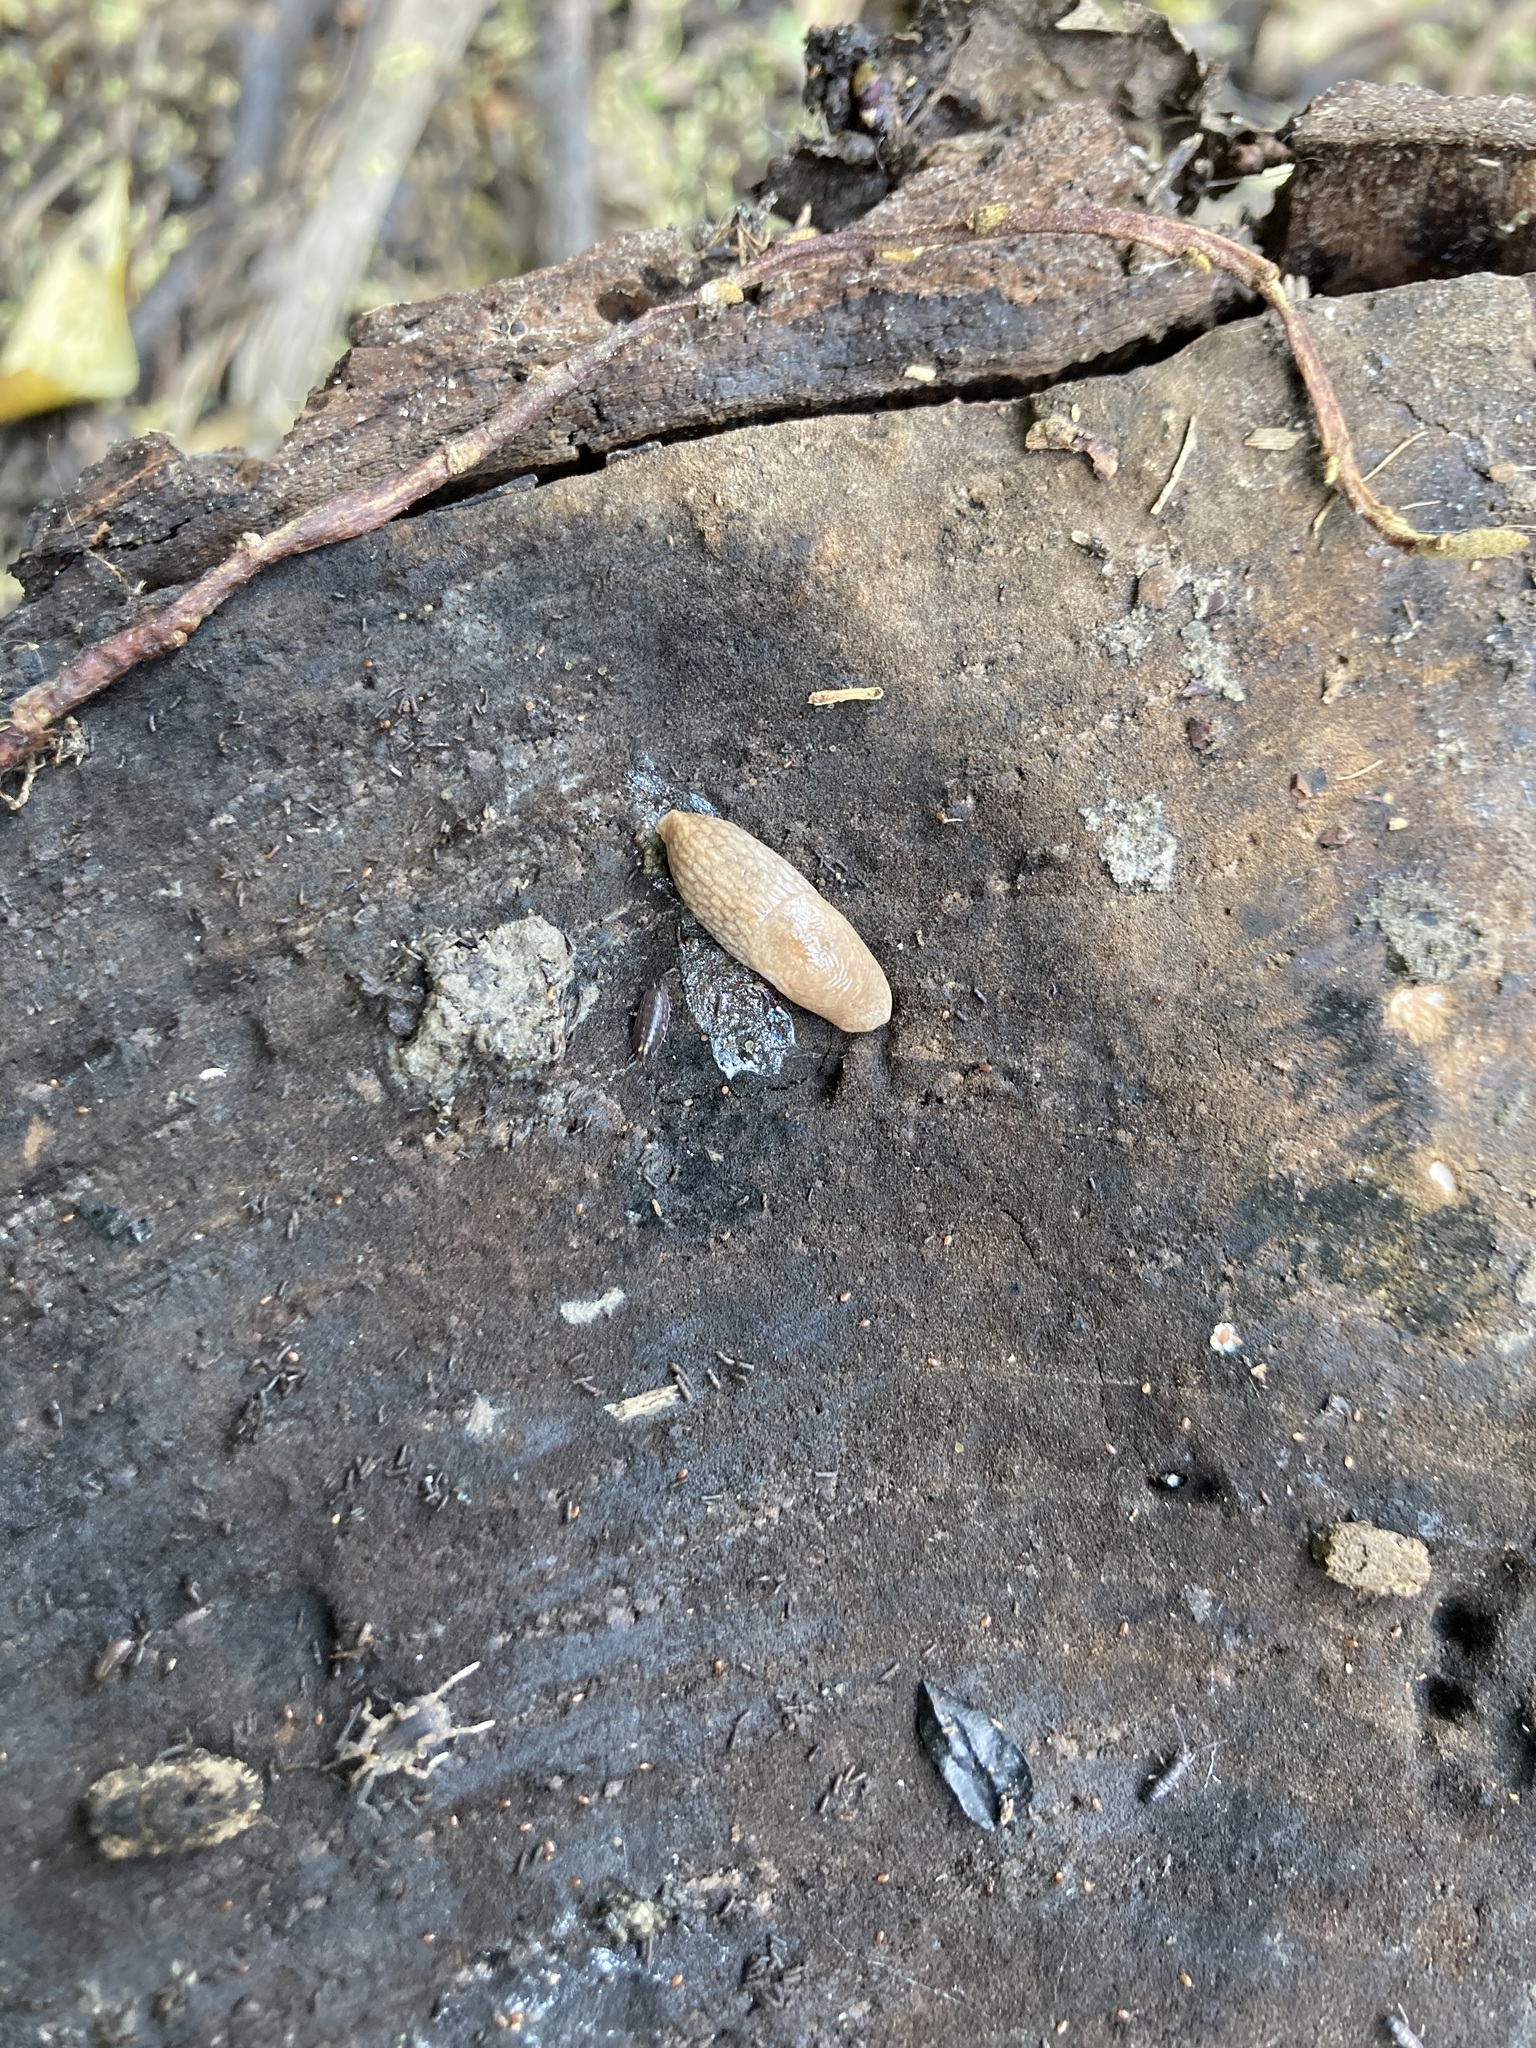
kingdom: Animalia
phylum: Mollusca
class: Gastropoda
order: Stylommatophora
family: Agriolimacidae
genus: Deroceras
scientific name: Deroceras reticulatum
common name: Gray field slug
